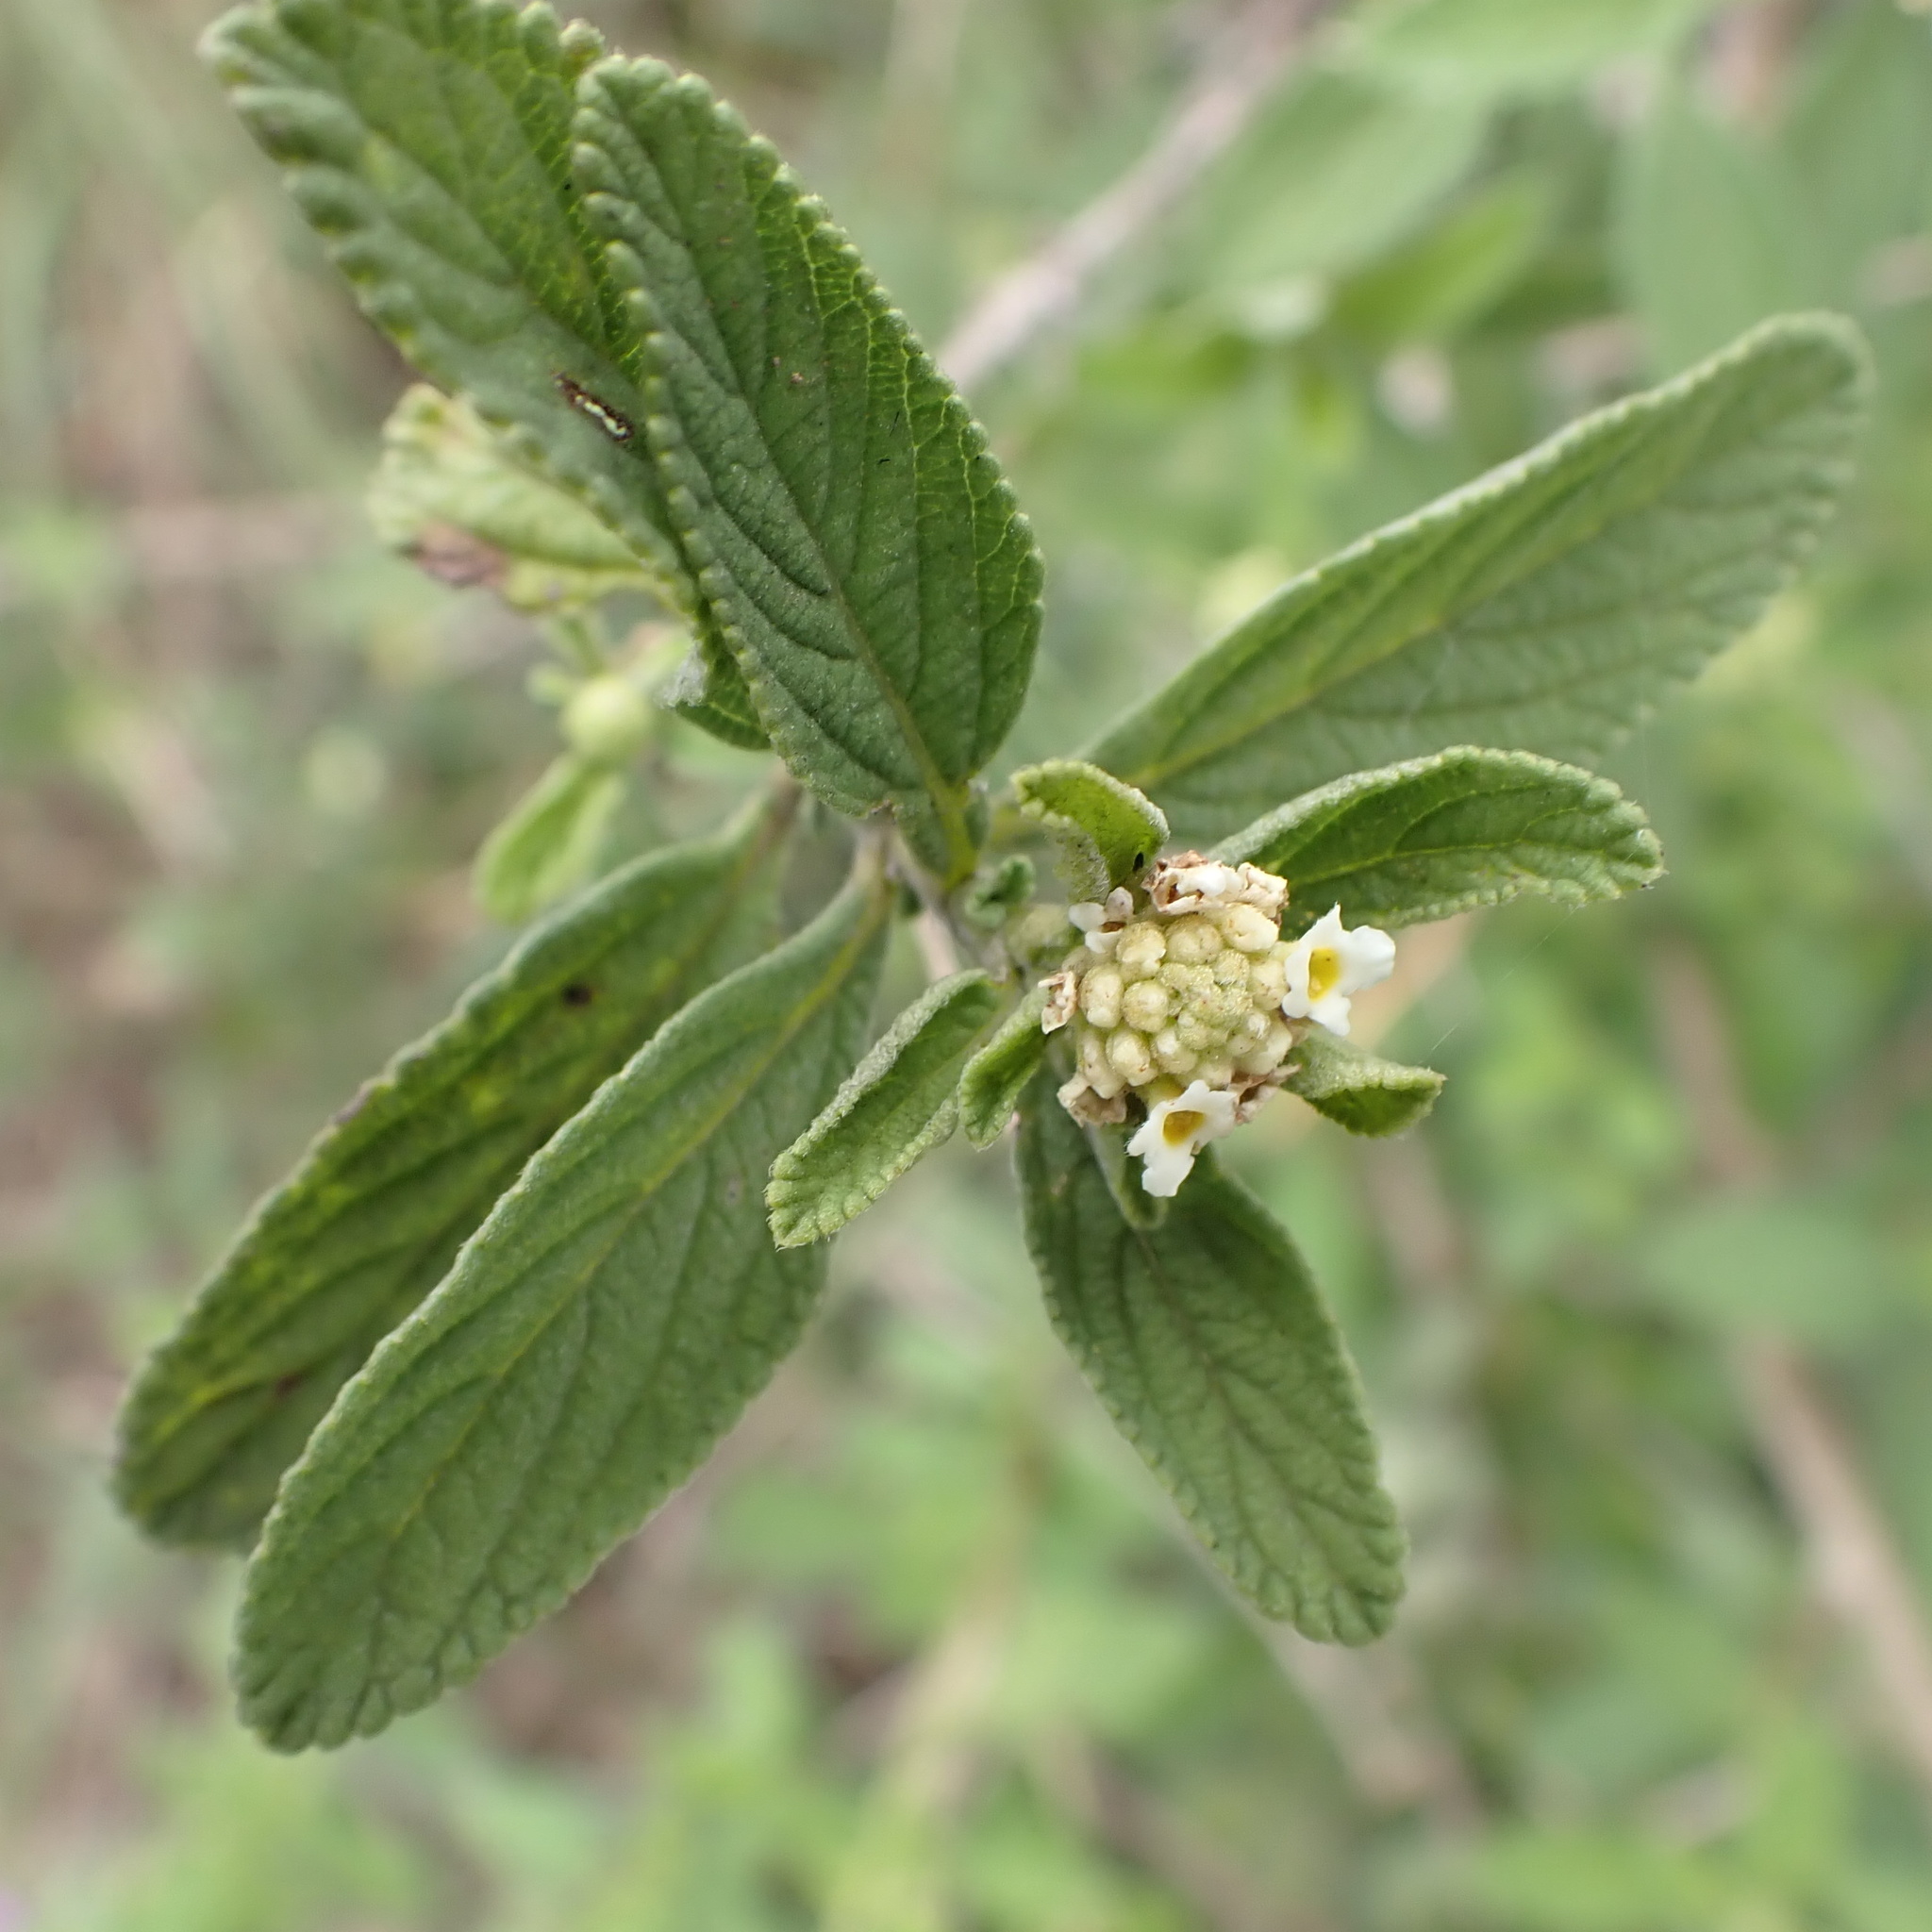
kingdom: Plantae
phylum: Tracheophyta
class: Magnoliopsida
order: Lamiales
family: Verbenaceae
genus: Lippia
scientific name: Lippia javanica
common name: Lemonbush
